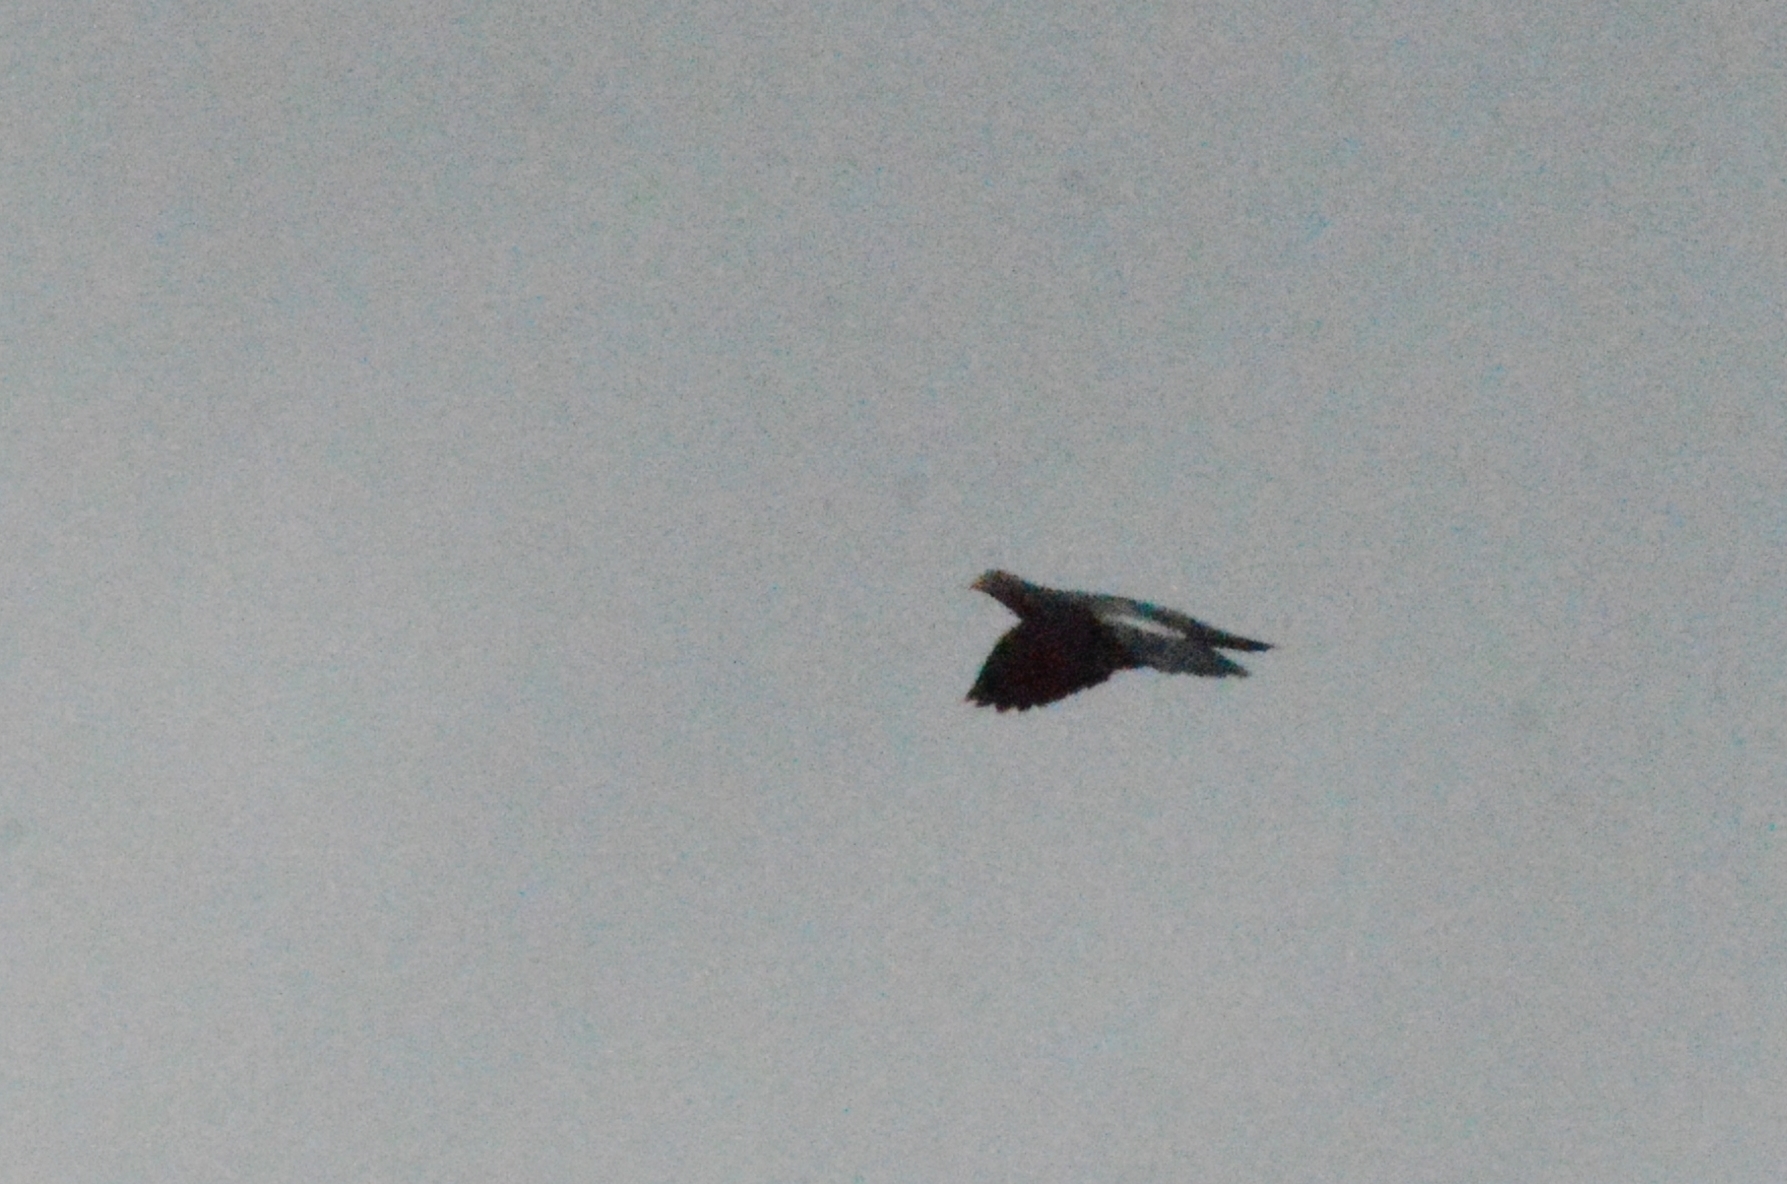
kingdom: Animalia
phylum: Chordata
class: Aves
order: Columbiformes
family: Columbidae
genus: Patagioenas
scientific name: Patagioenas picazuro
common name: Picazuro pigeon
